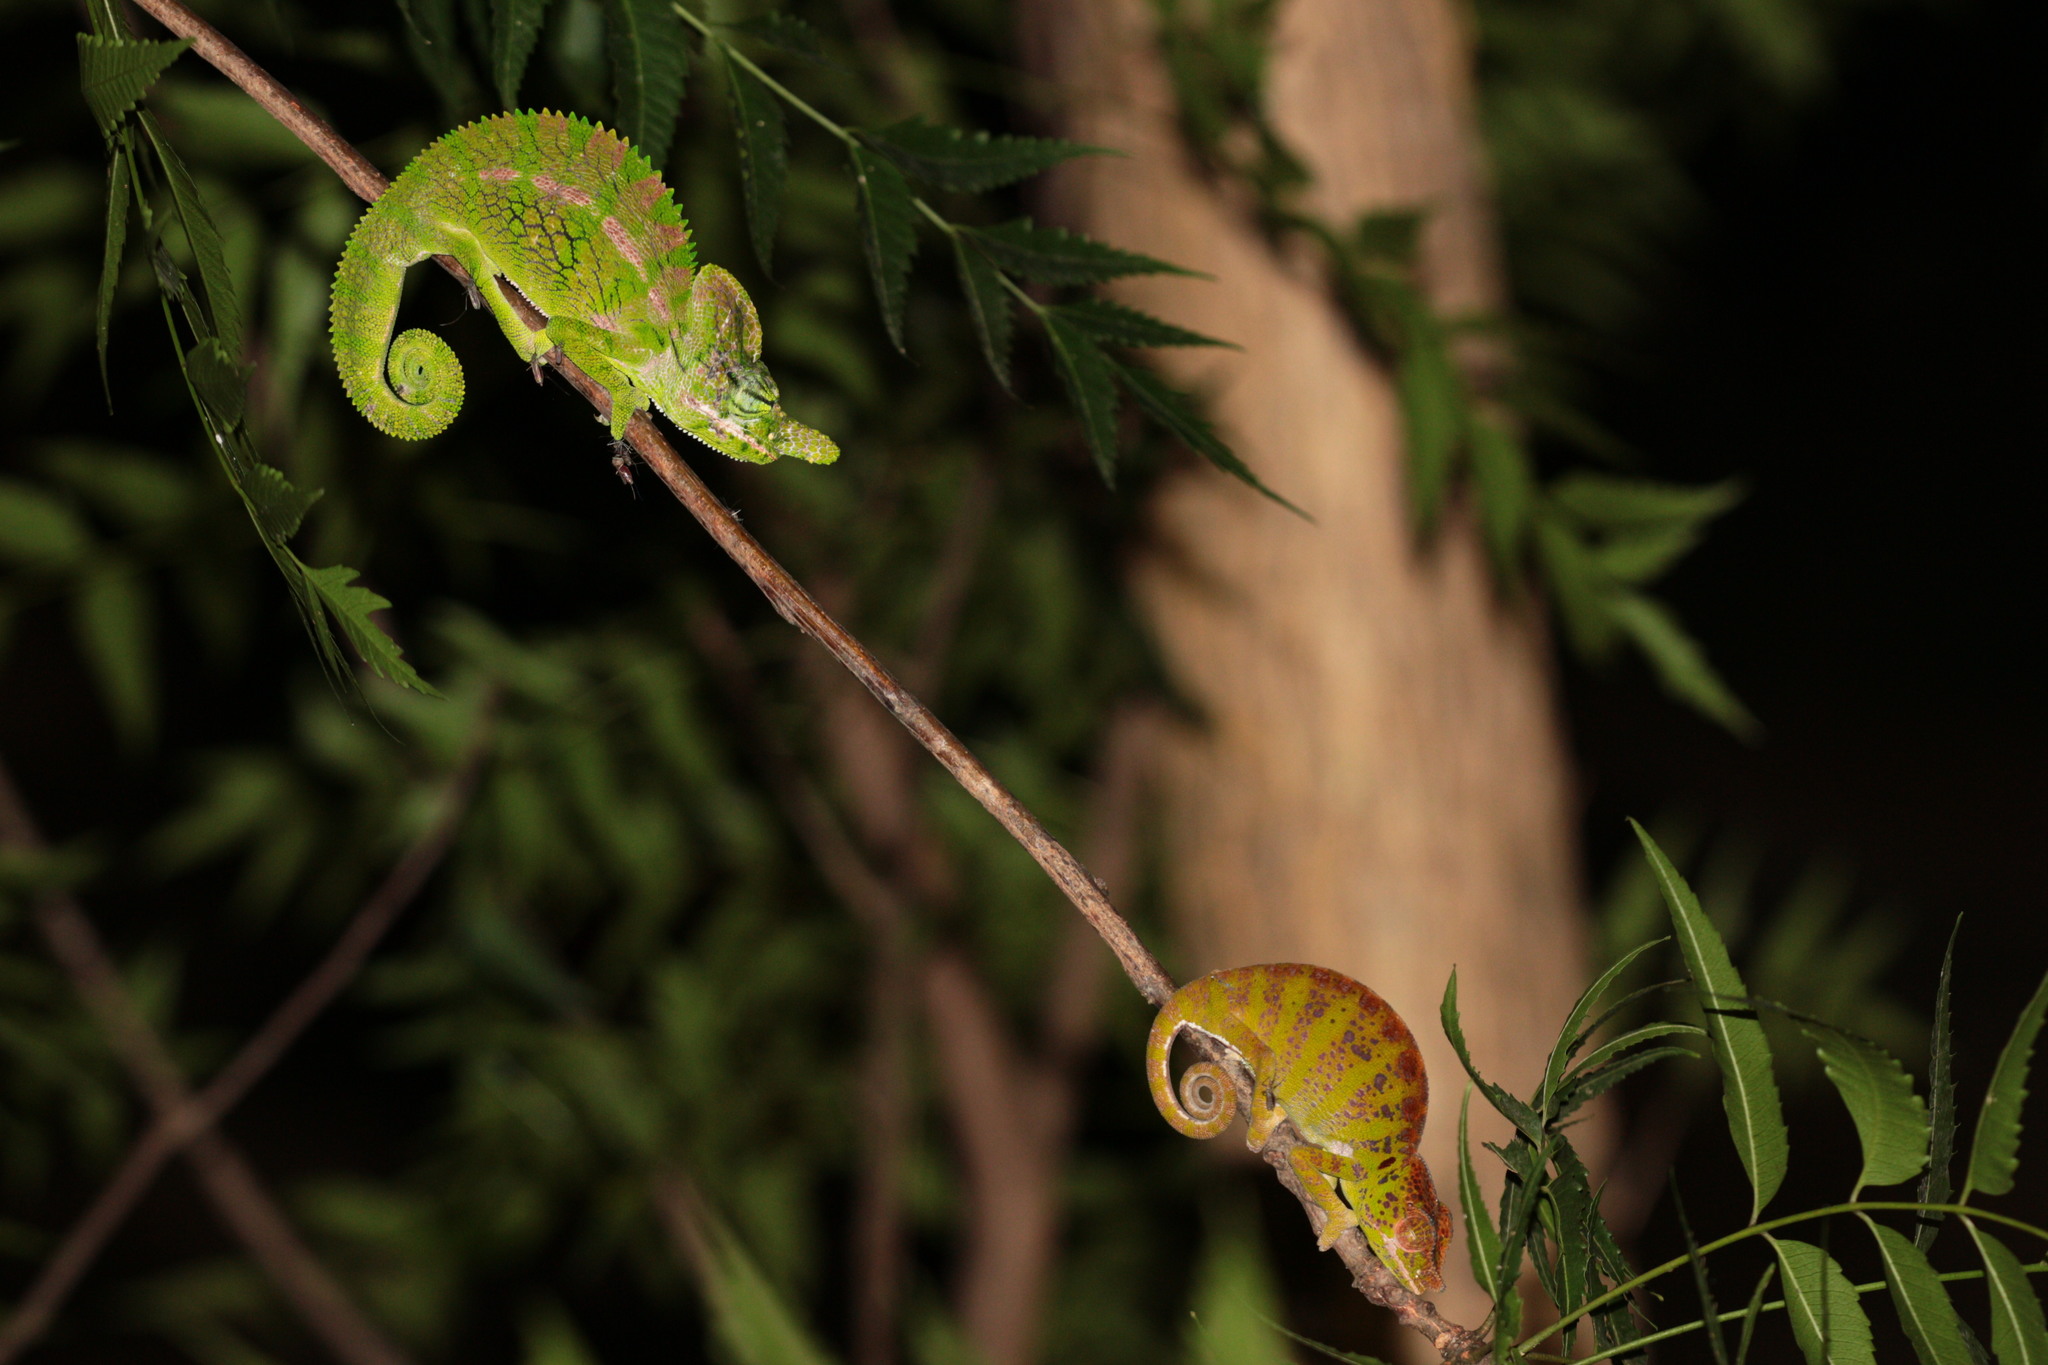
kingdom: Animalia
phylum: Chordata
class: Squamata
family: Chamaeleonidae
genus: Furcifer
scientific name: Furcifer labordi
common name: Laborde's chameleon
